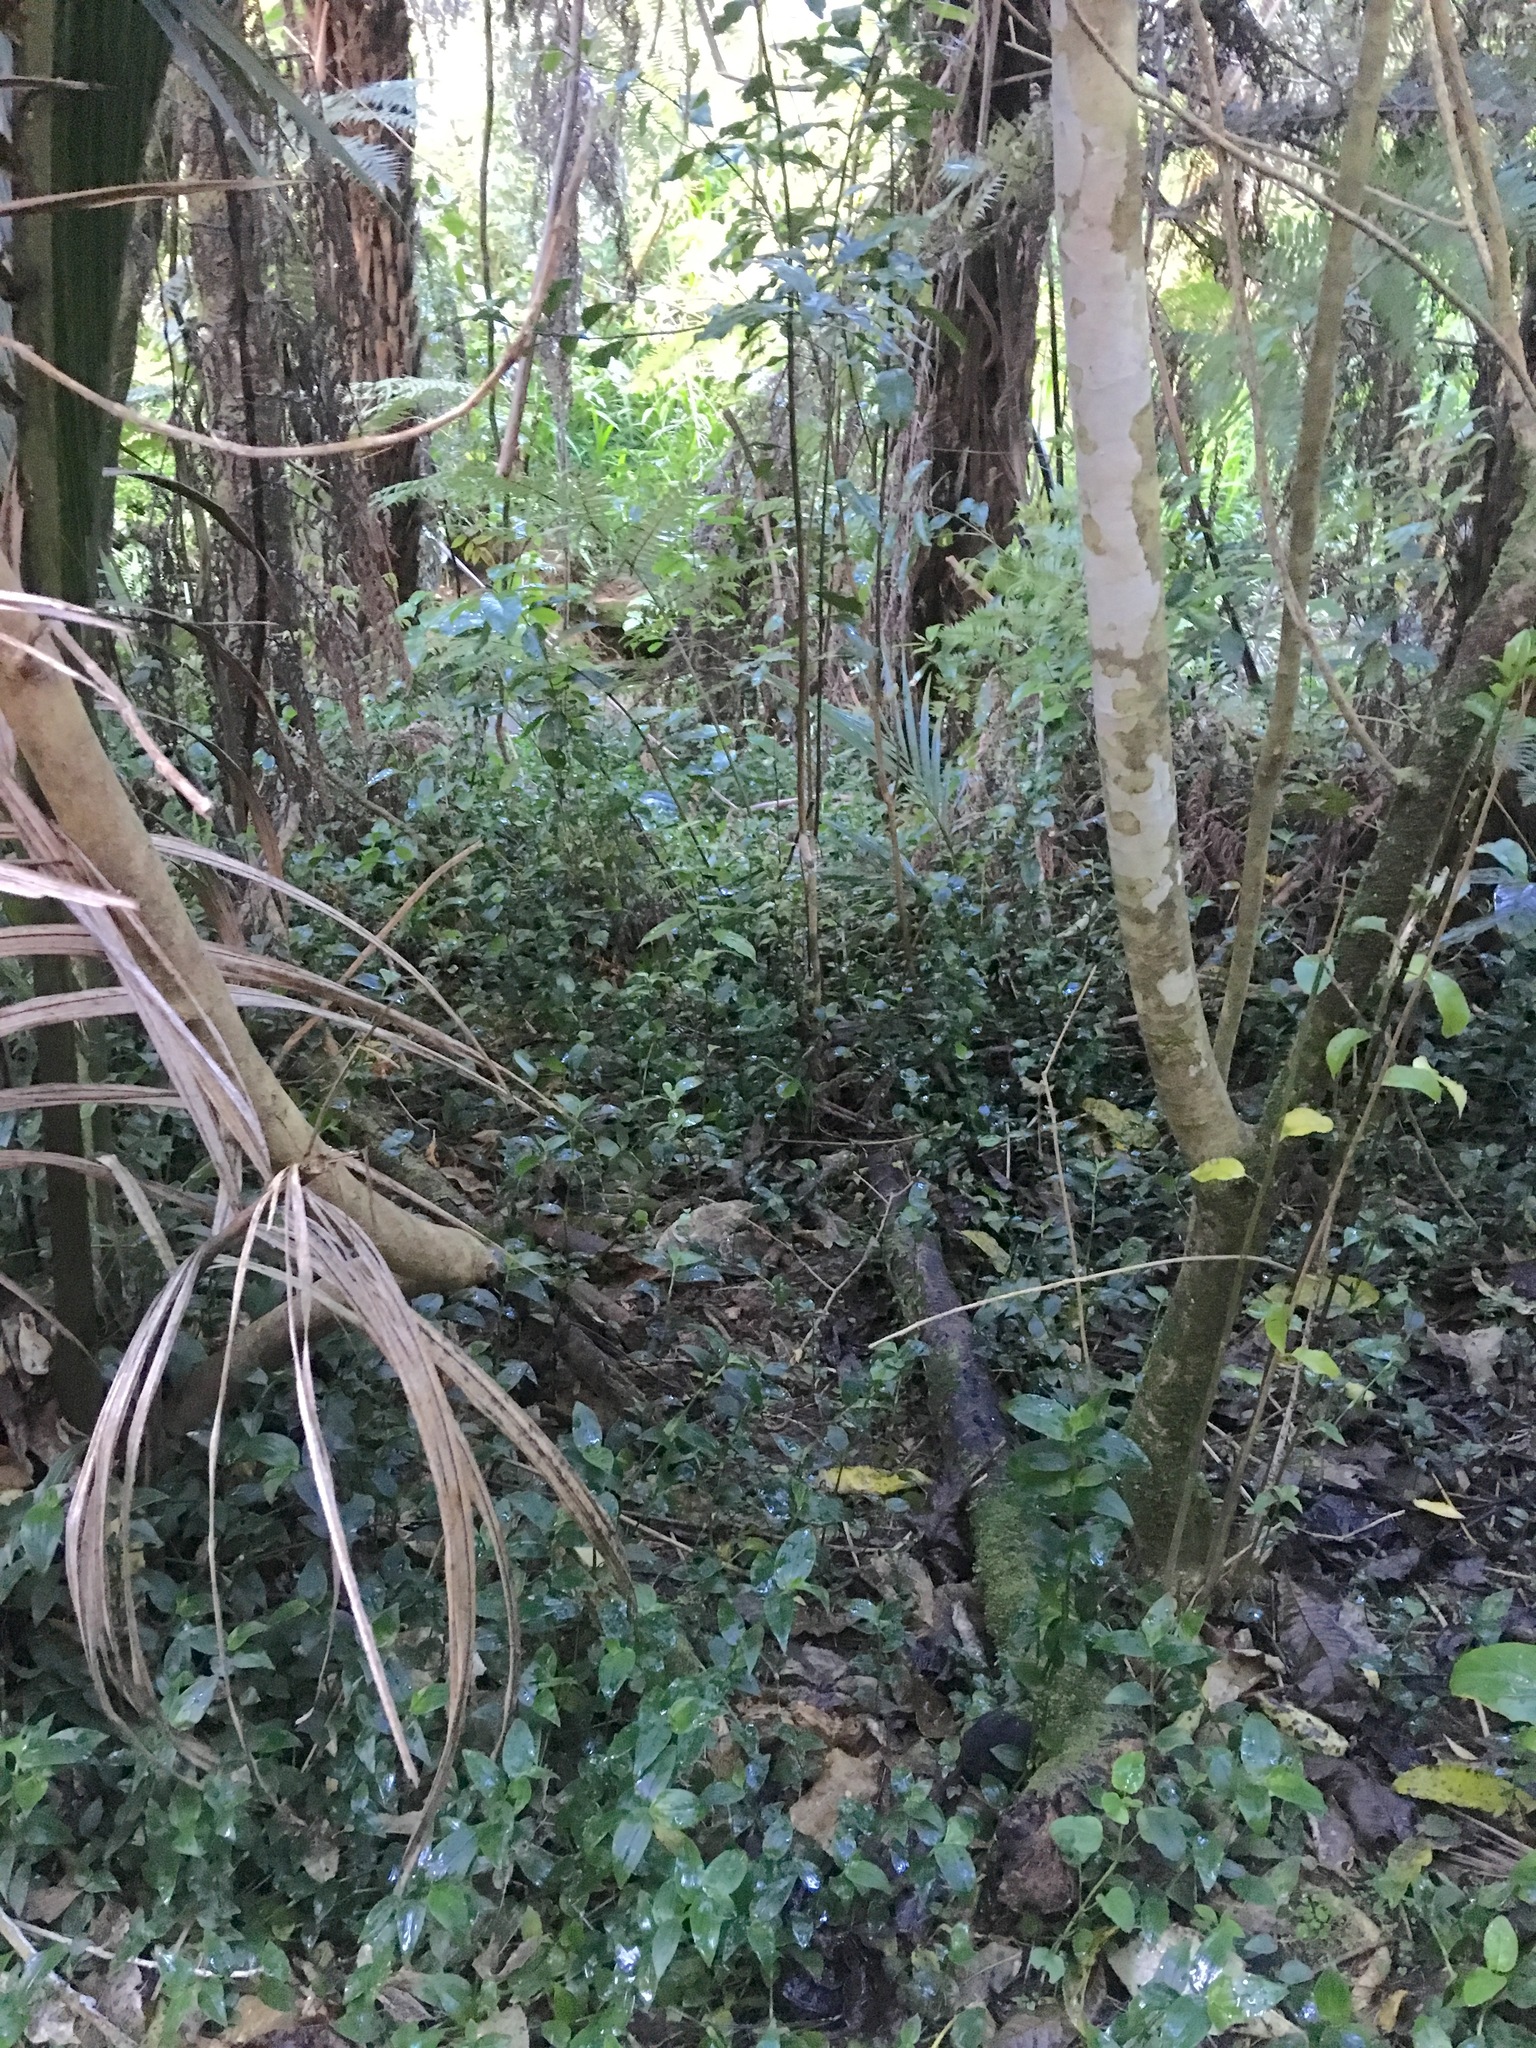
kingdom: Plantae
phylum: Tracheophyta
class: Liliopsida
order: Commelinales
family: Commelinaceae
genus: Tradescantia
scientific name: Tradescantia fluminensis
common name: Wandering-jew
